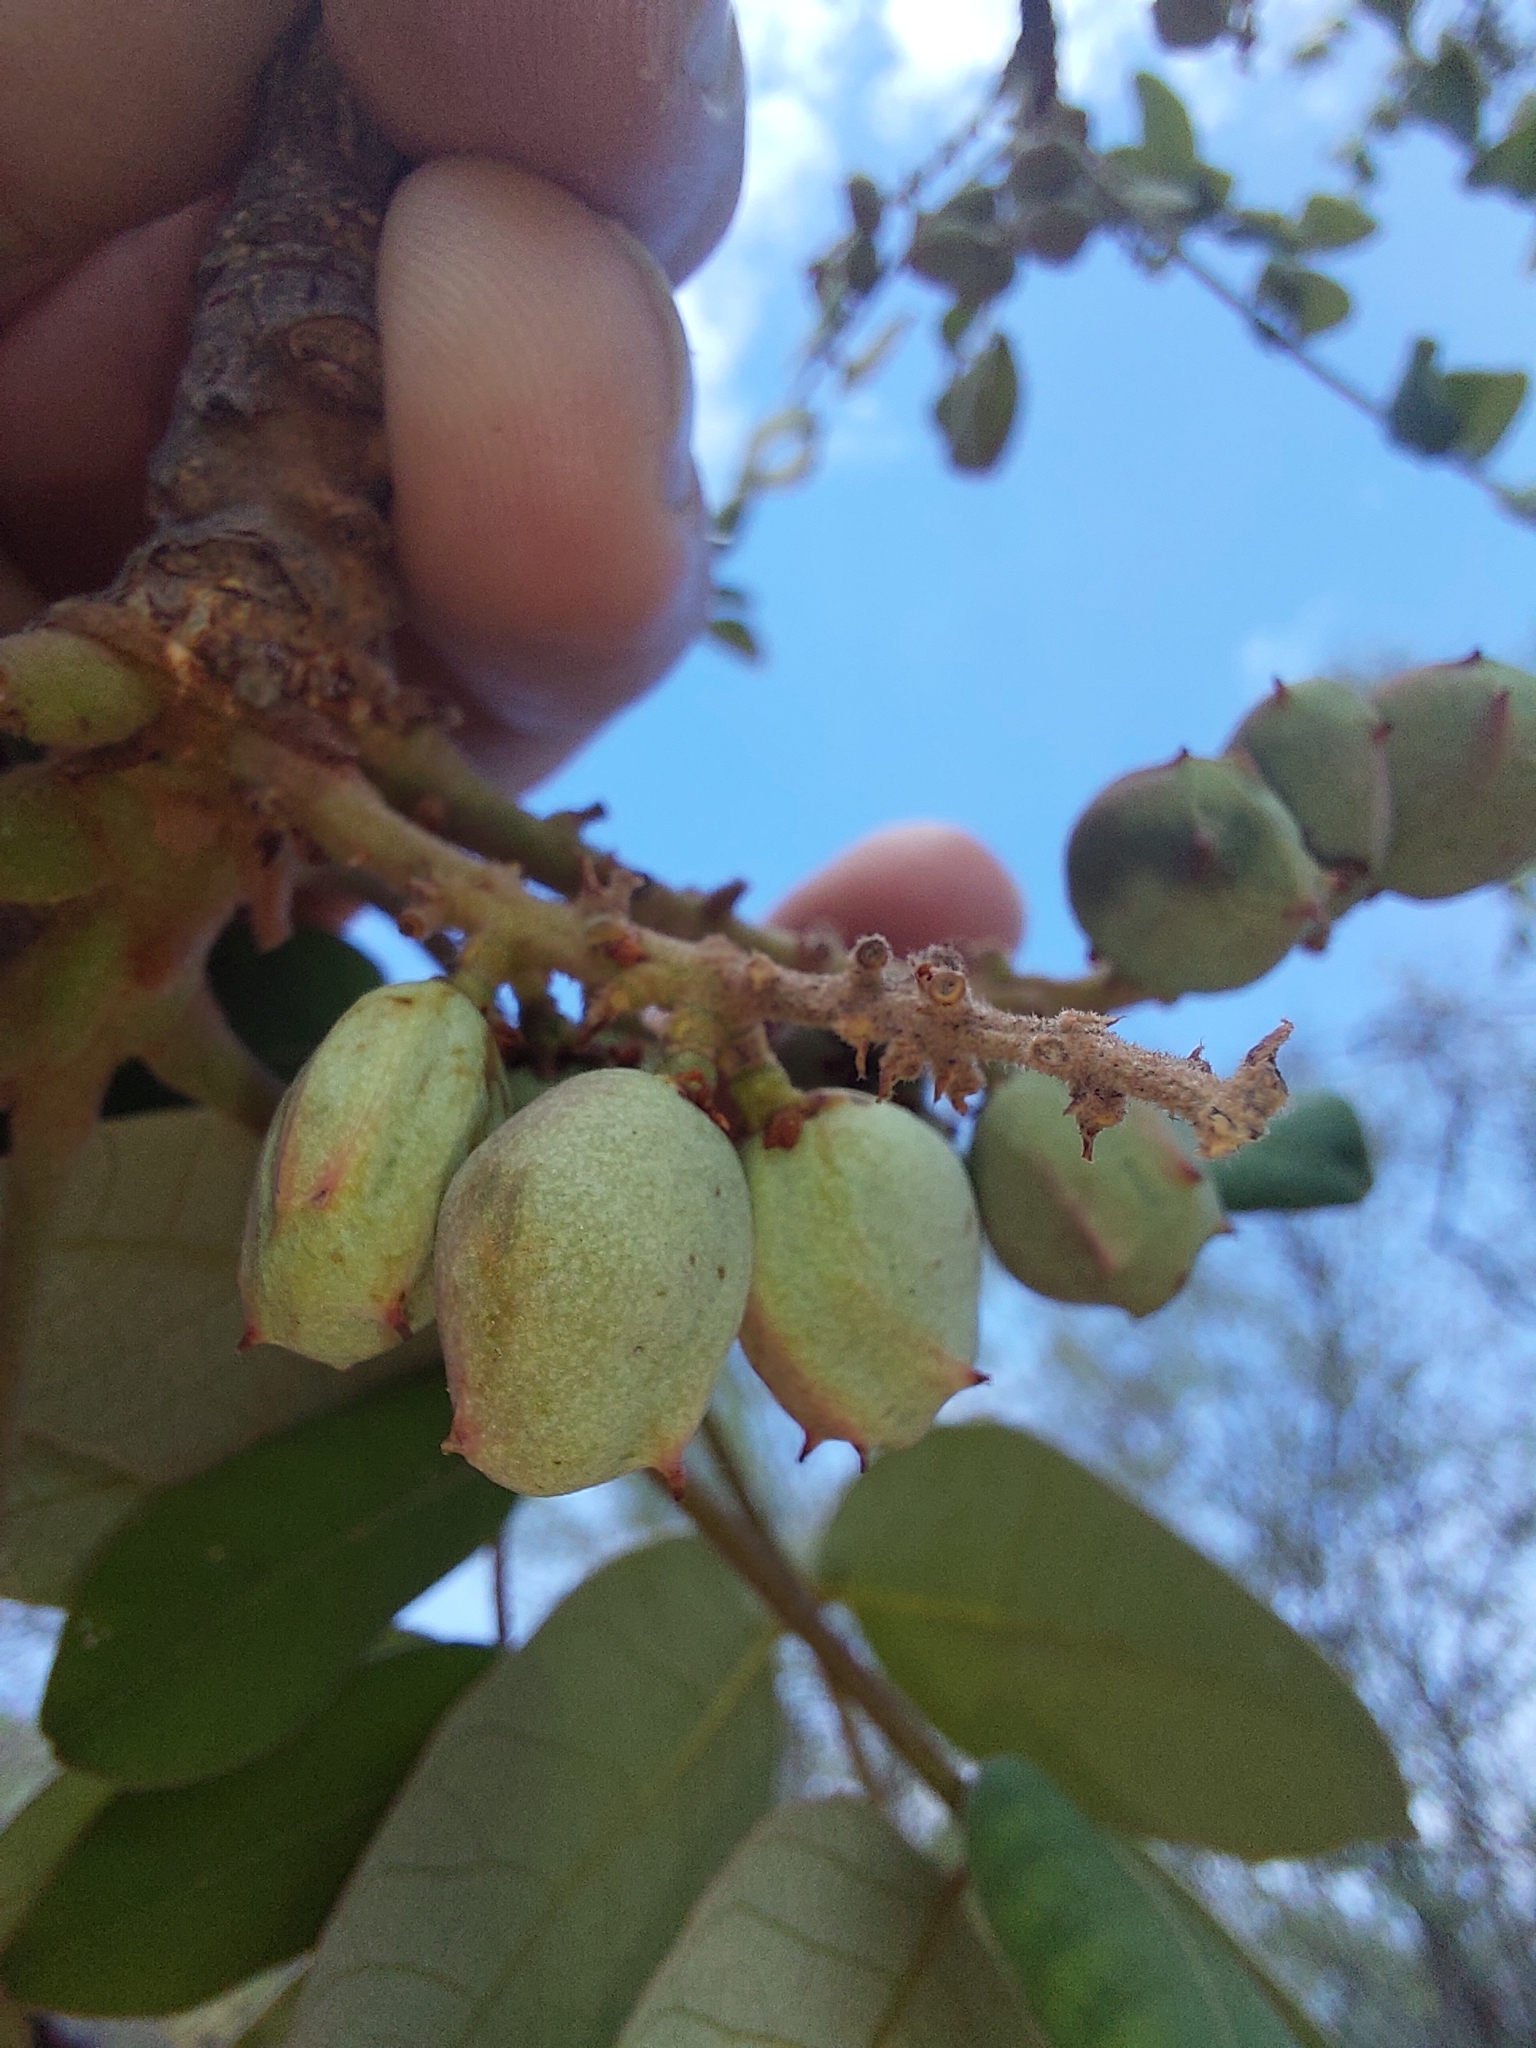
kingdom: Plantae
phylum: Tracheophyta
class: Magnoliopsida
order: Sapindales
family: Anacardiaceae
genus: Lannea
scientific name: Lannea discolor
